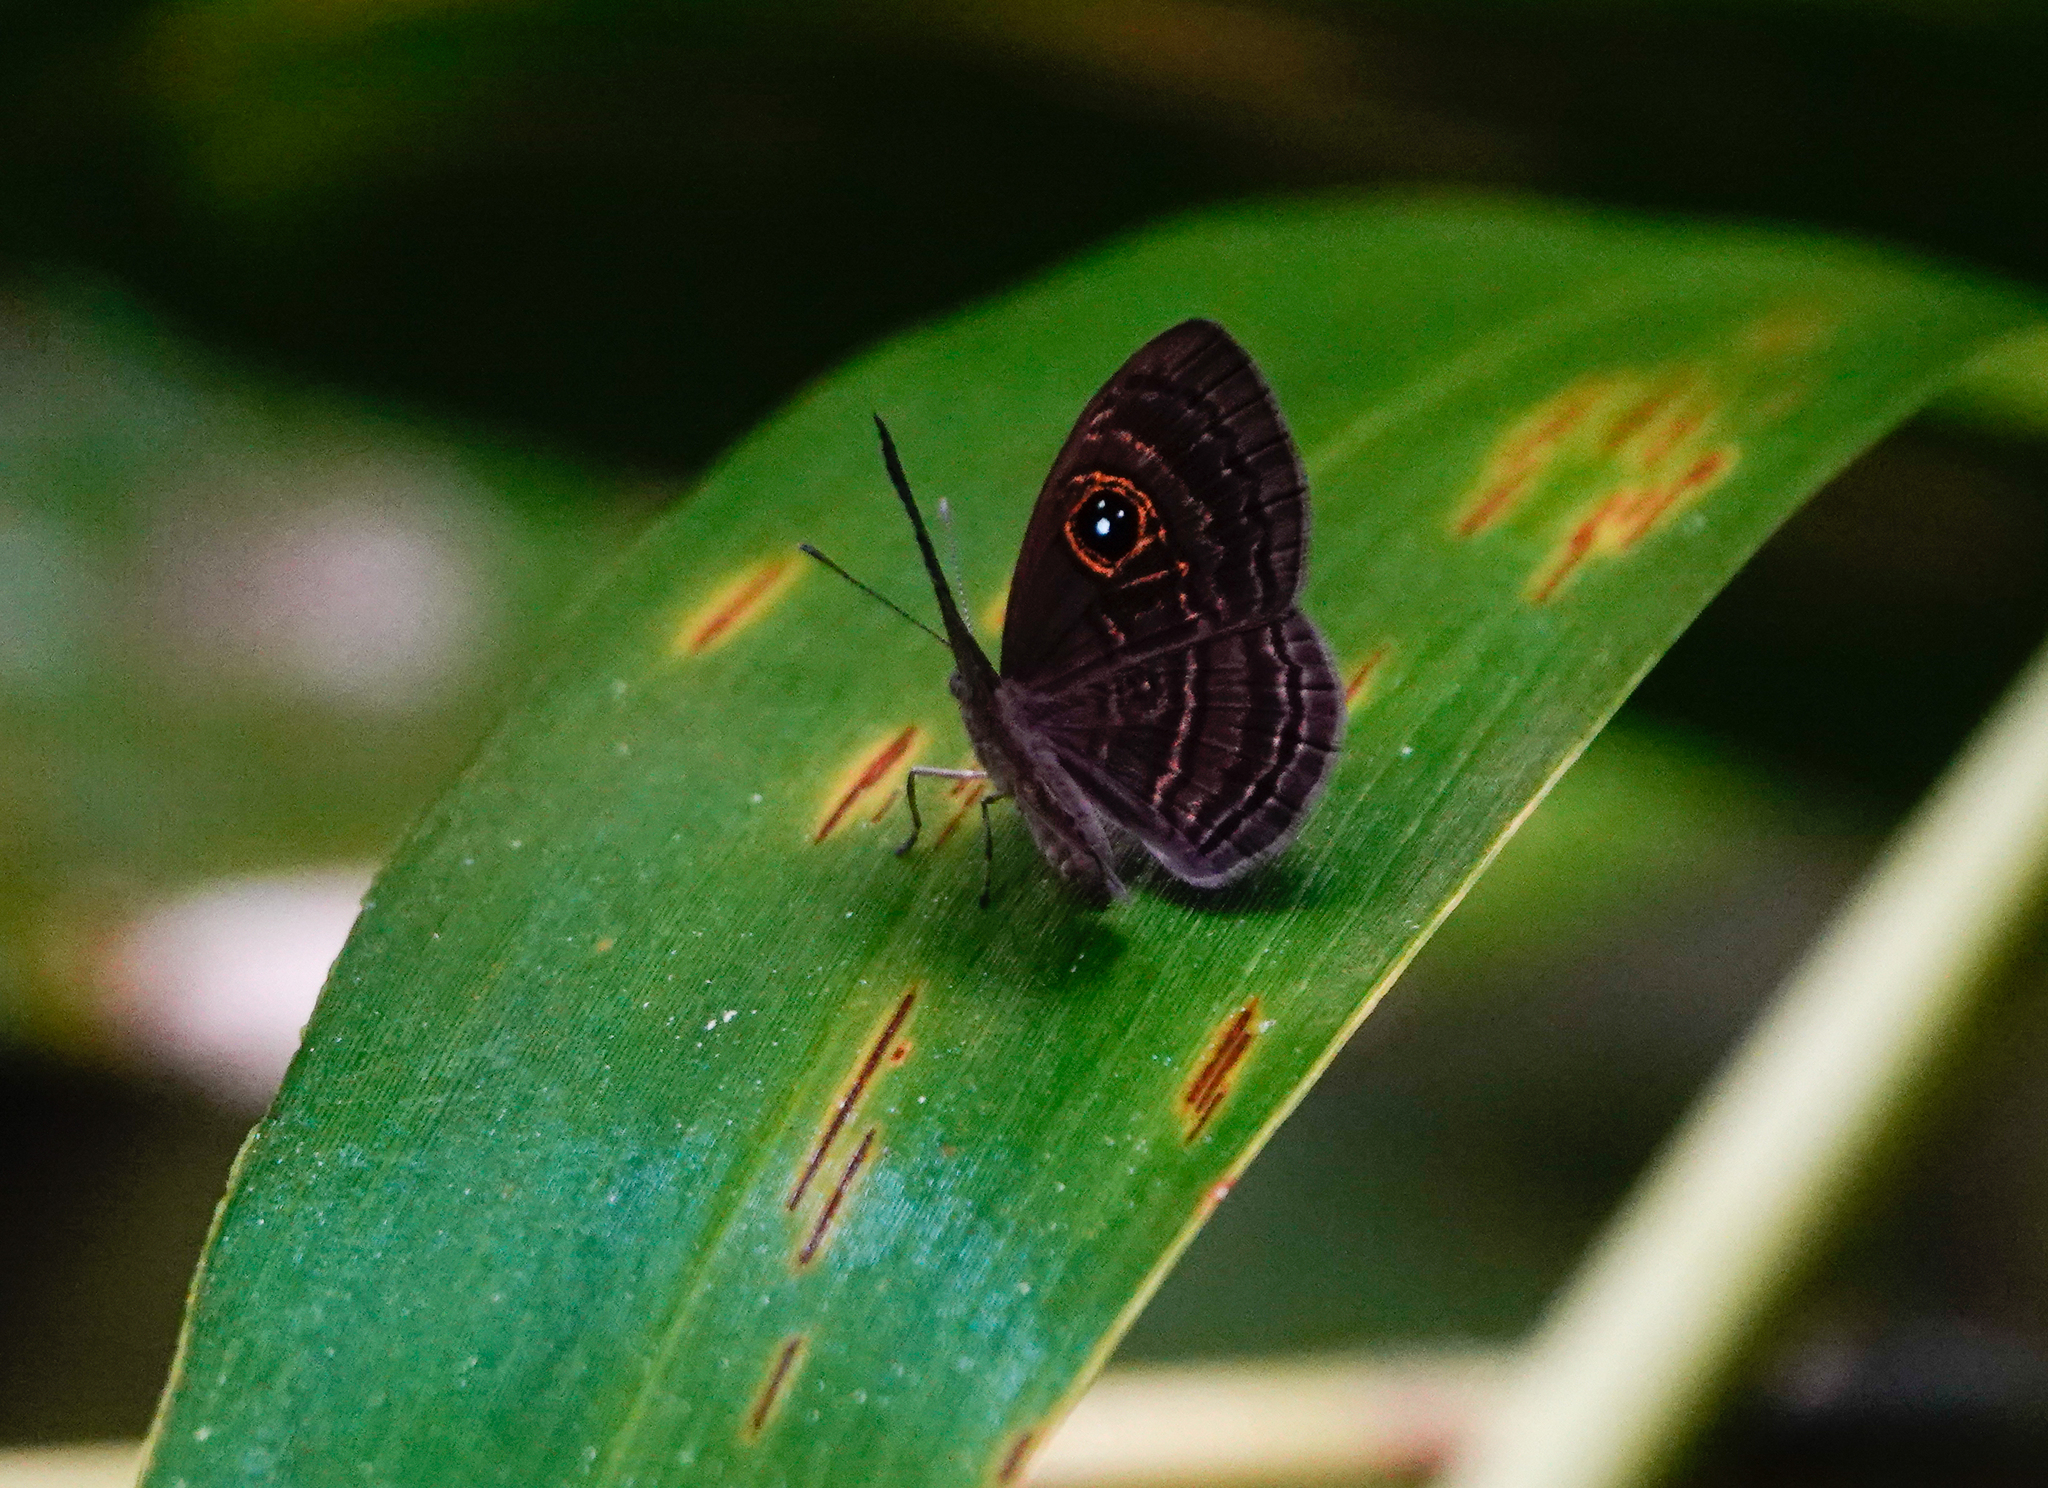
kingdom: Animalia
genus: Mesosemia
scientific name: Mesosemia ibycus
